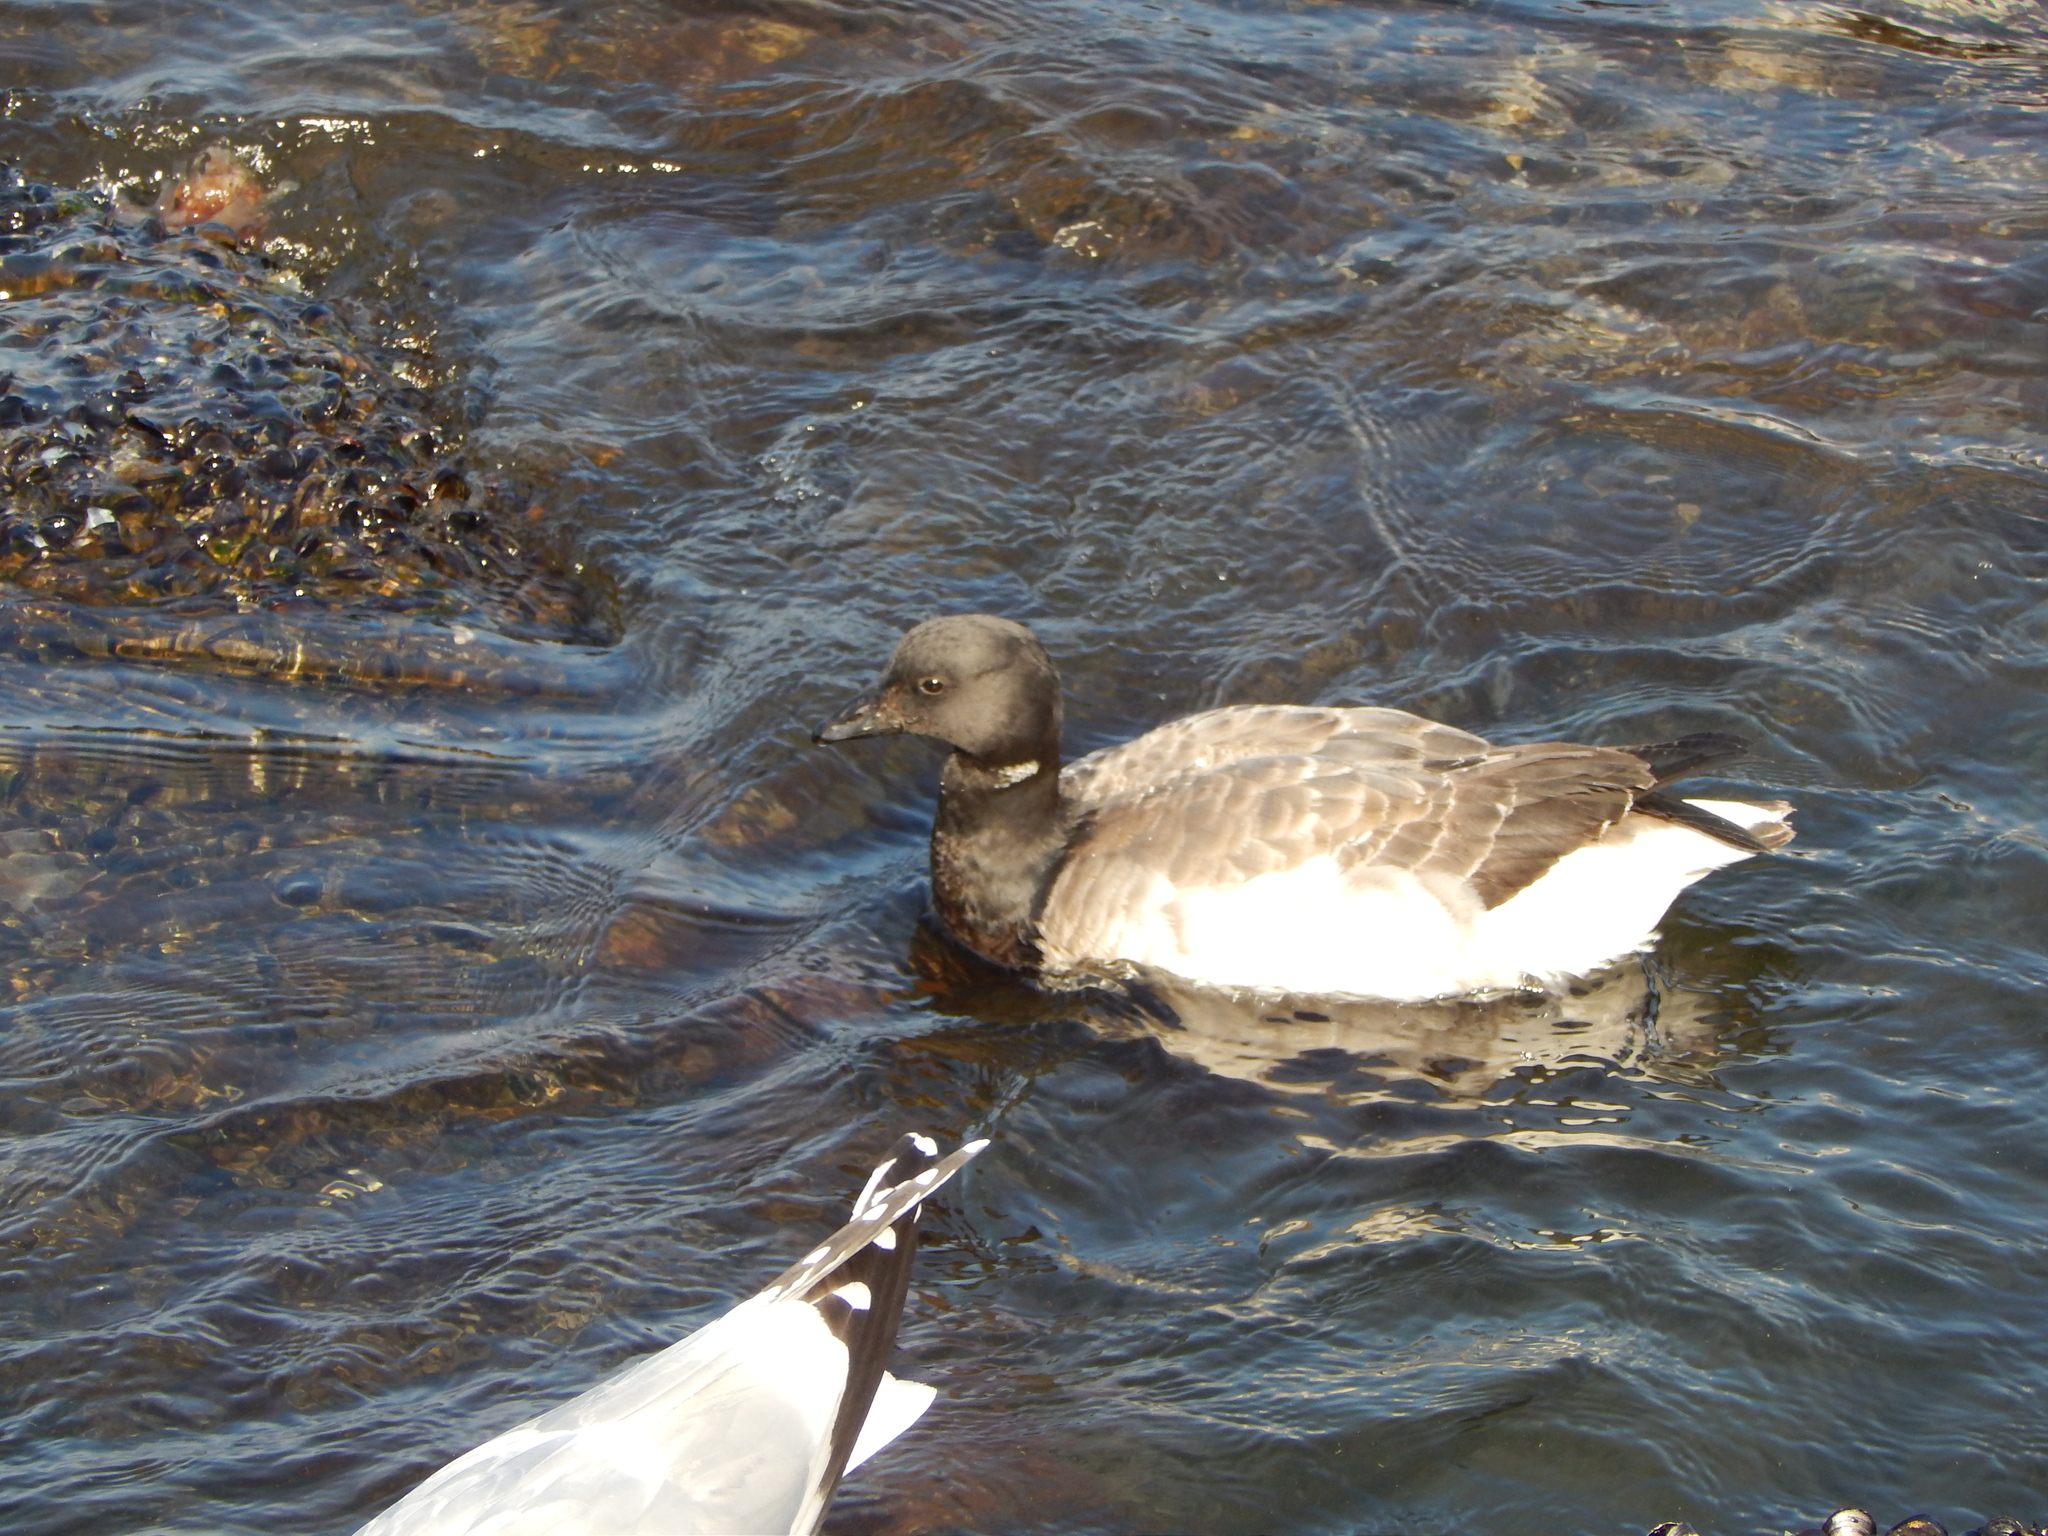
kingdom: Animalia
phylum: Chordata
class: Aves
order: Anseriformes
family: Anatidae
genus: Branta
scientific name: Branta bernicla
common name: Brant goose
